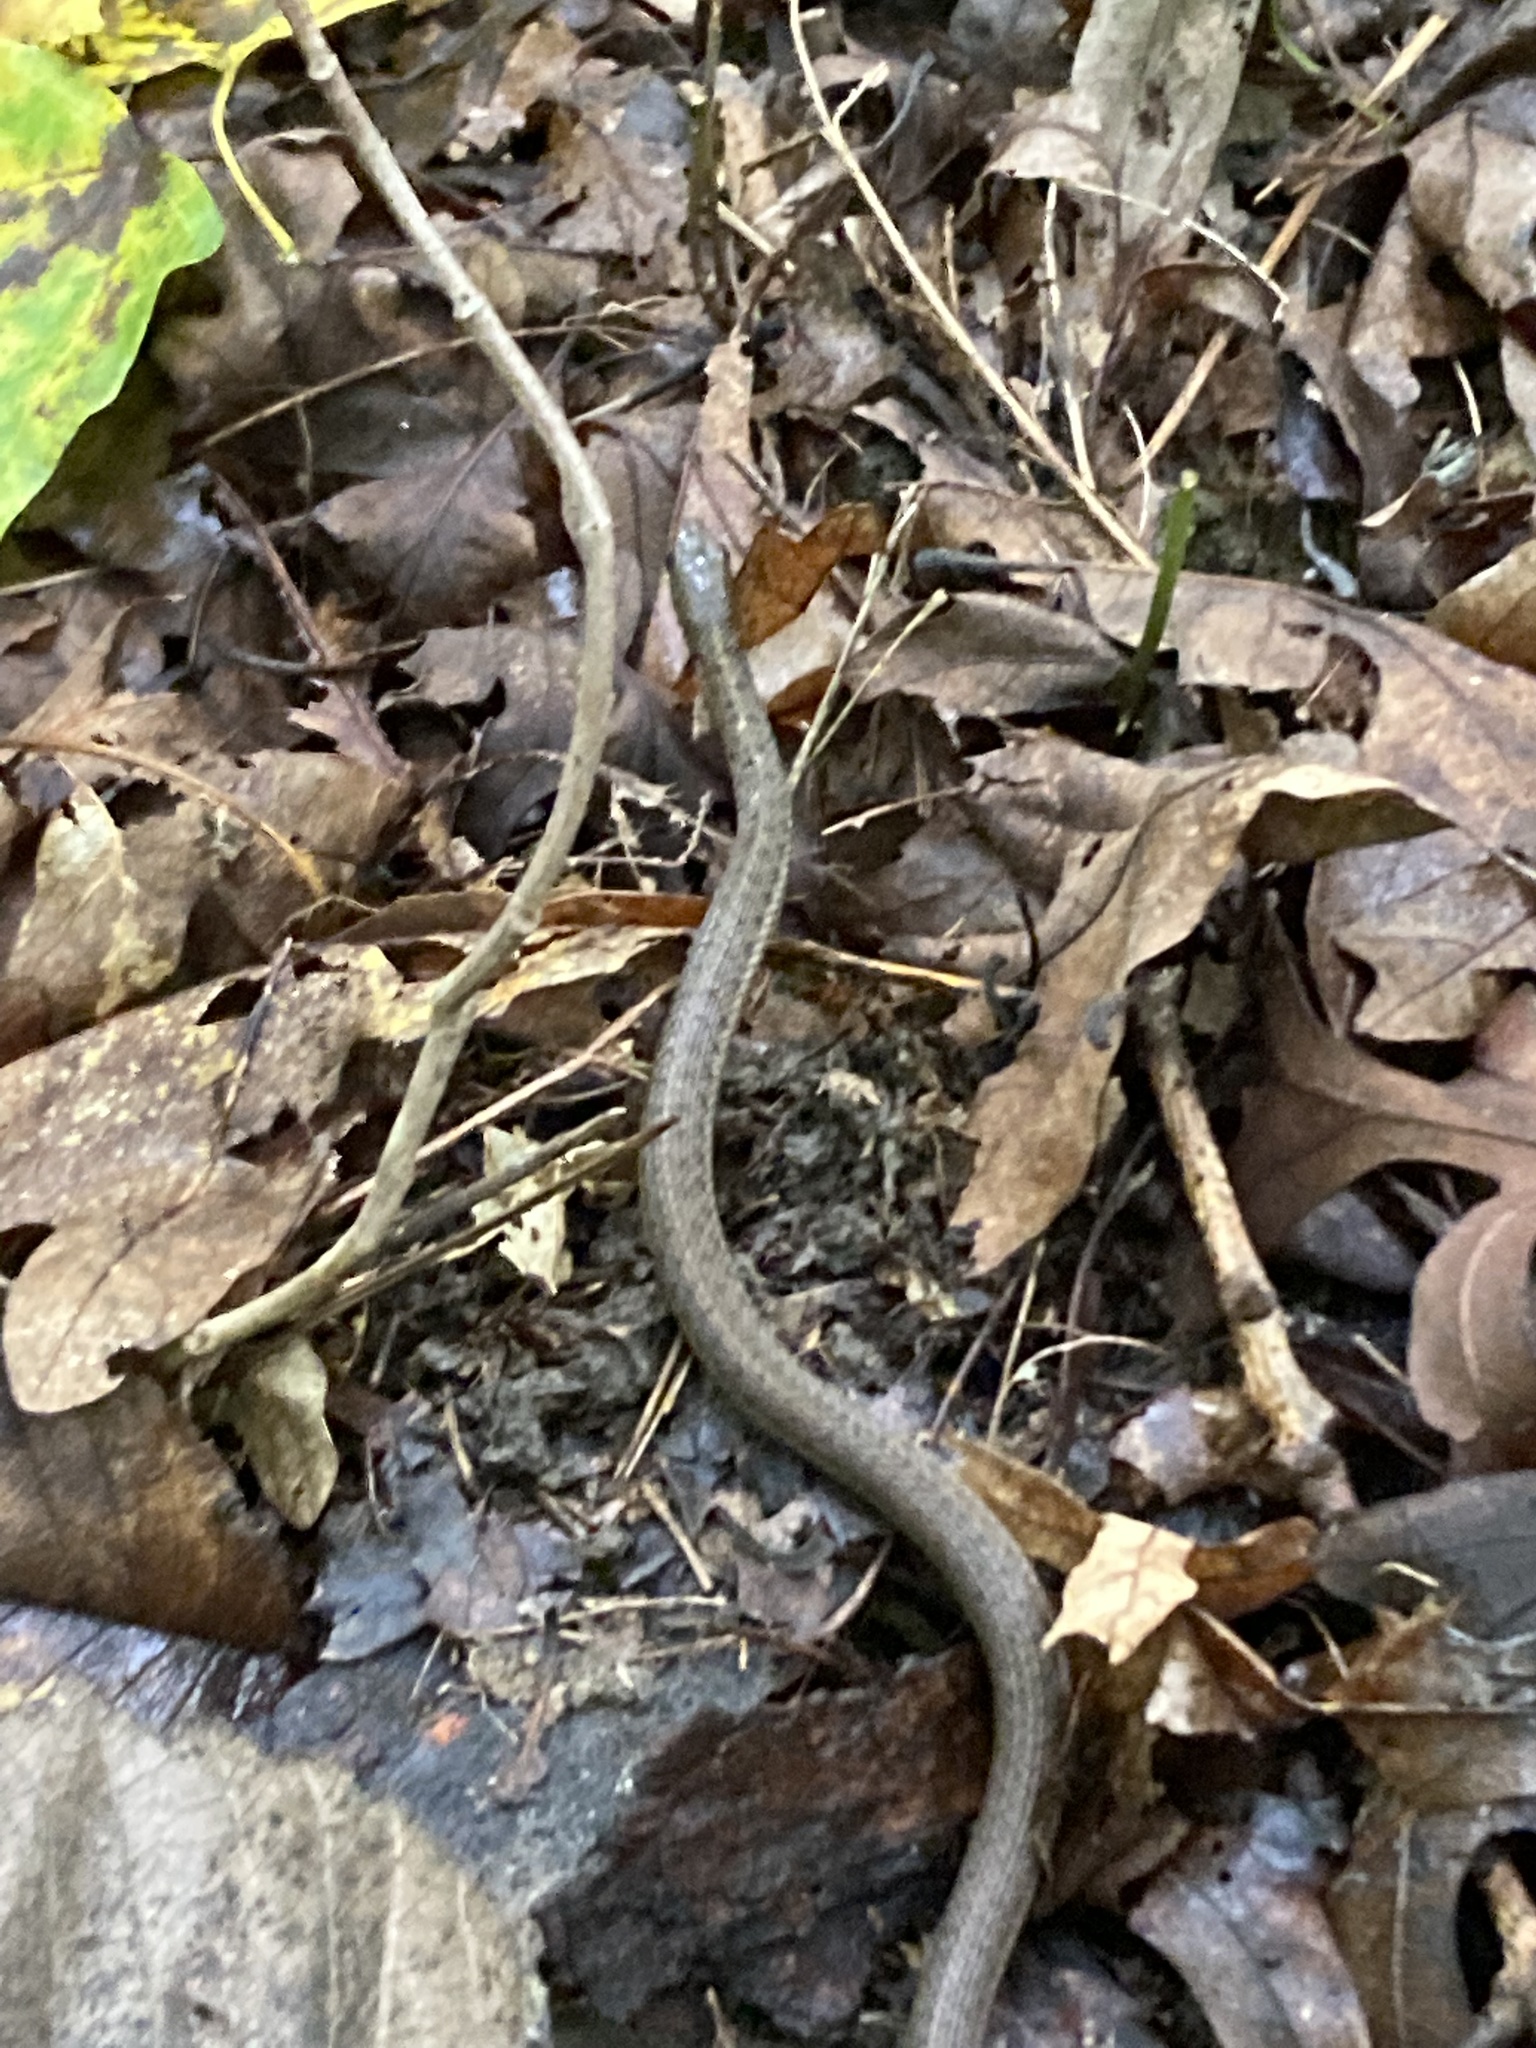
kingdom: Animalia
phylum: Chordata
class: Squamata
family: Colubridae
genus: Thamnophis
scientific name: Thamnophis sirtalis
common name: Common garter snake
